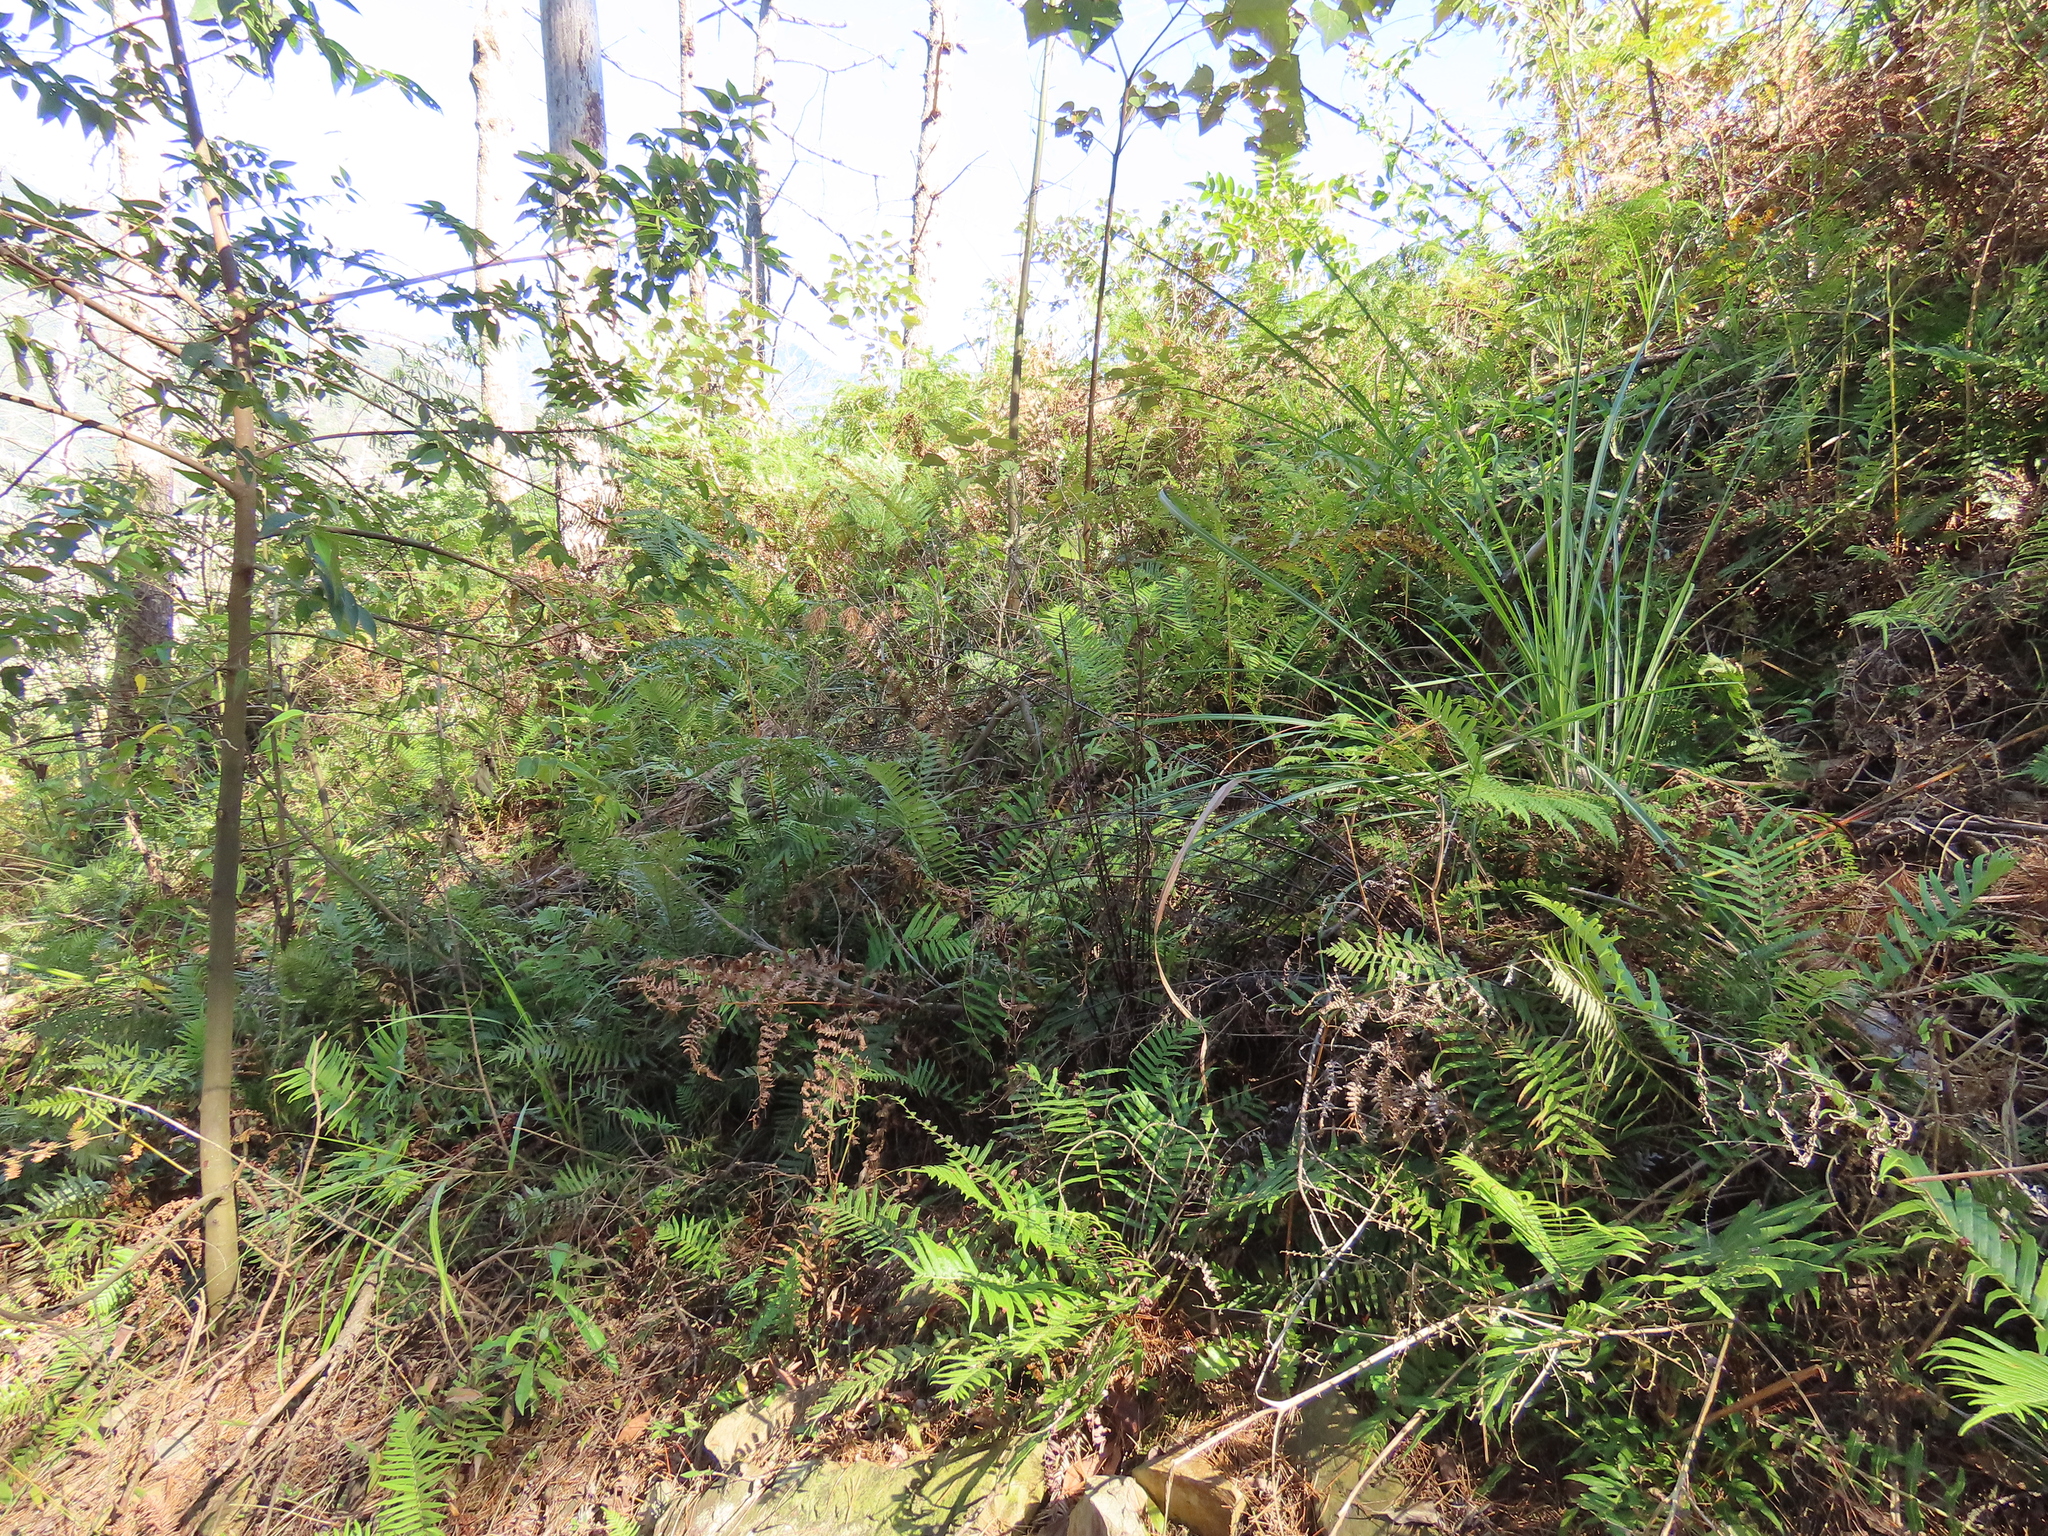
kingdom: Plantae
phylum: Tracheophyta
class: Polypodiopsida
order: Polypodiales
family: Blechnaceae
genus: Brainea
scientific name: Brainea insignis
